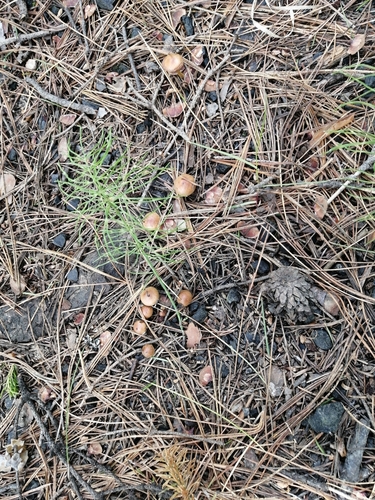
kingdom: Fungi
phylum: Basidiomycota
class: Agaricomycetes
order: Agaricales
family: Strophariaceae
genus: Pholiota
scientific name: Pholiota carbonaria
